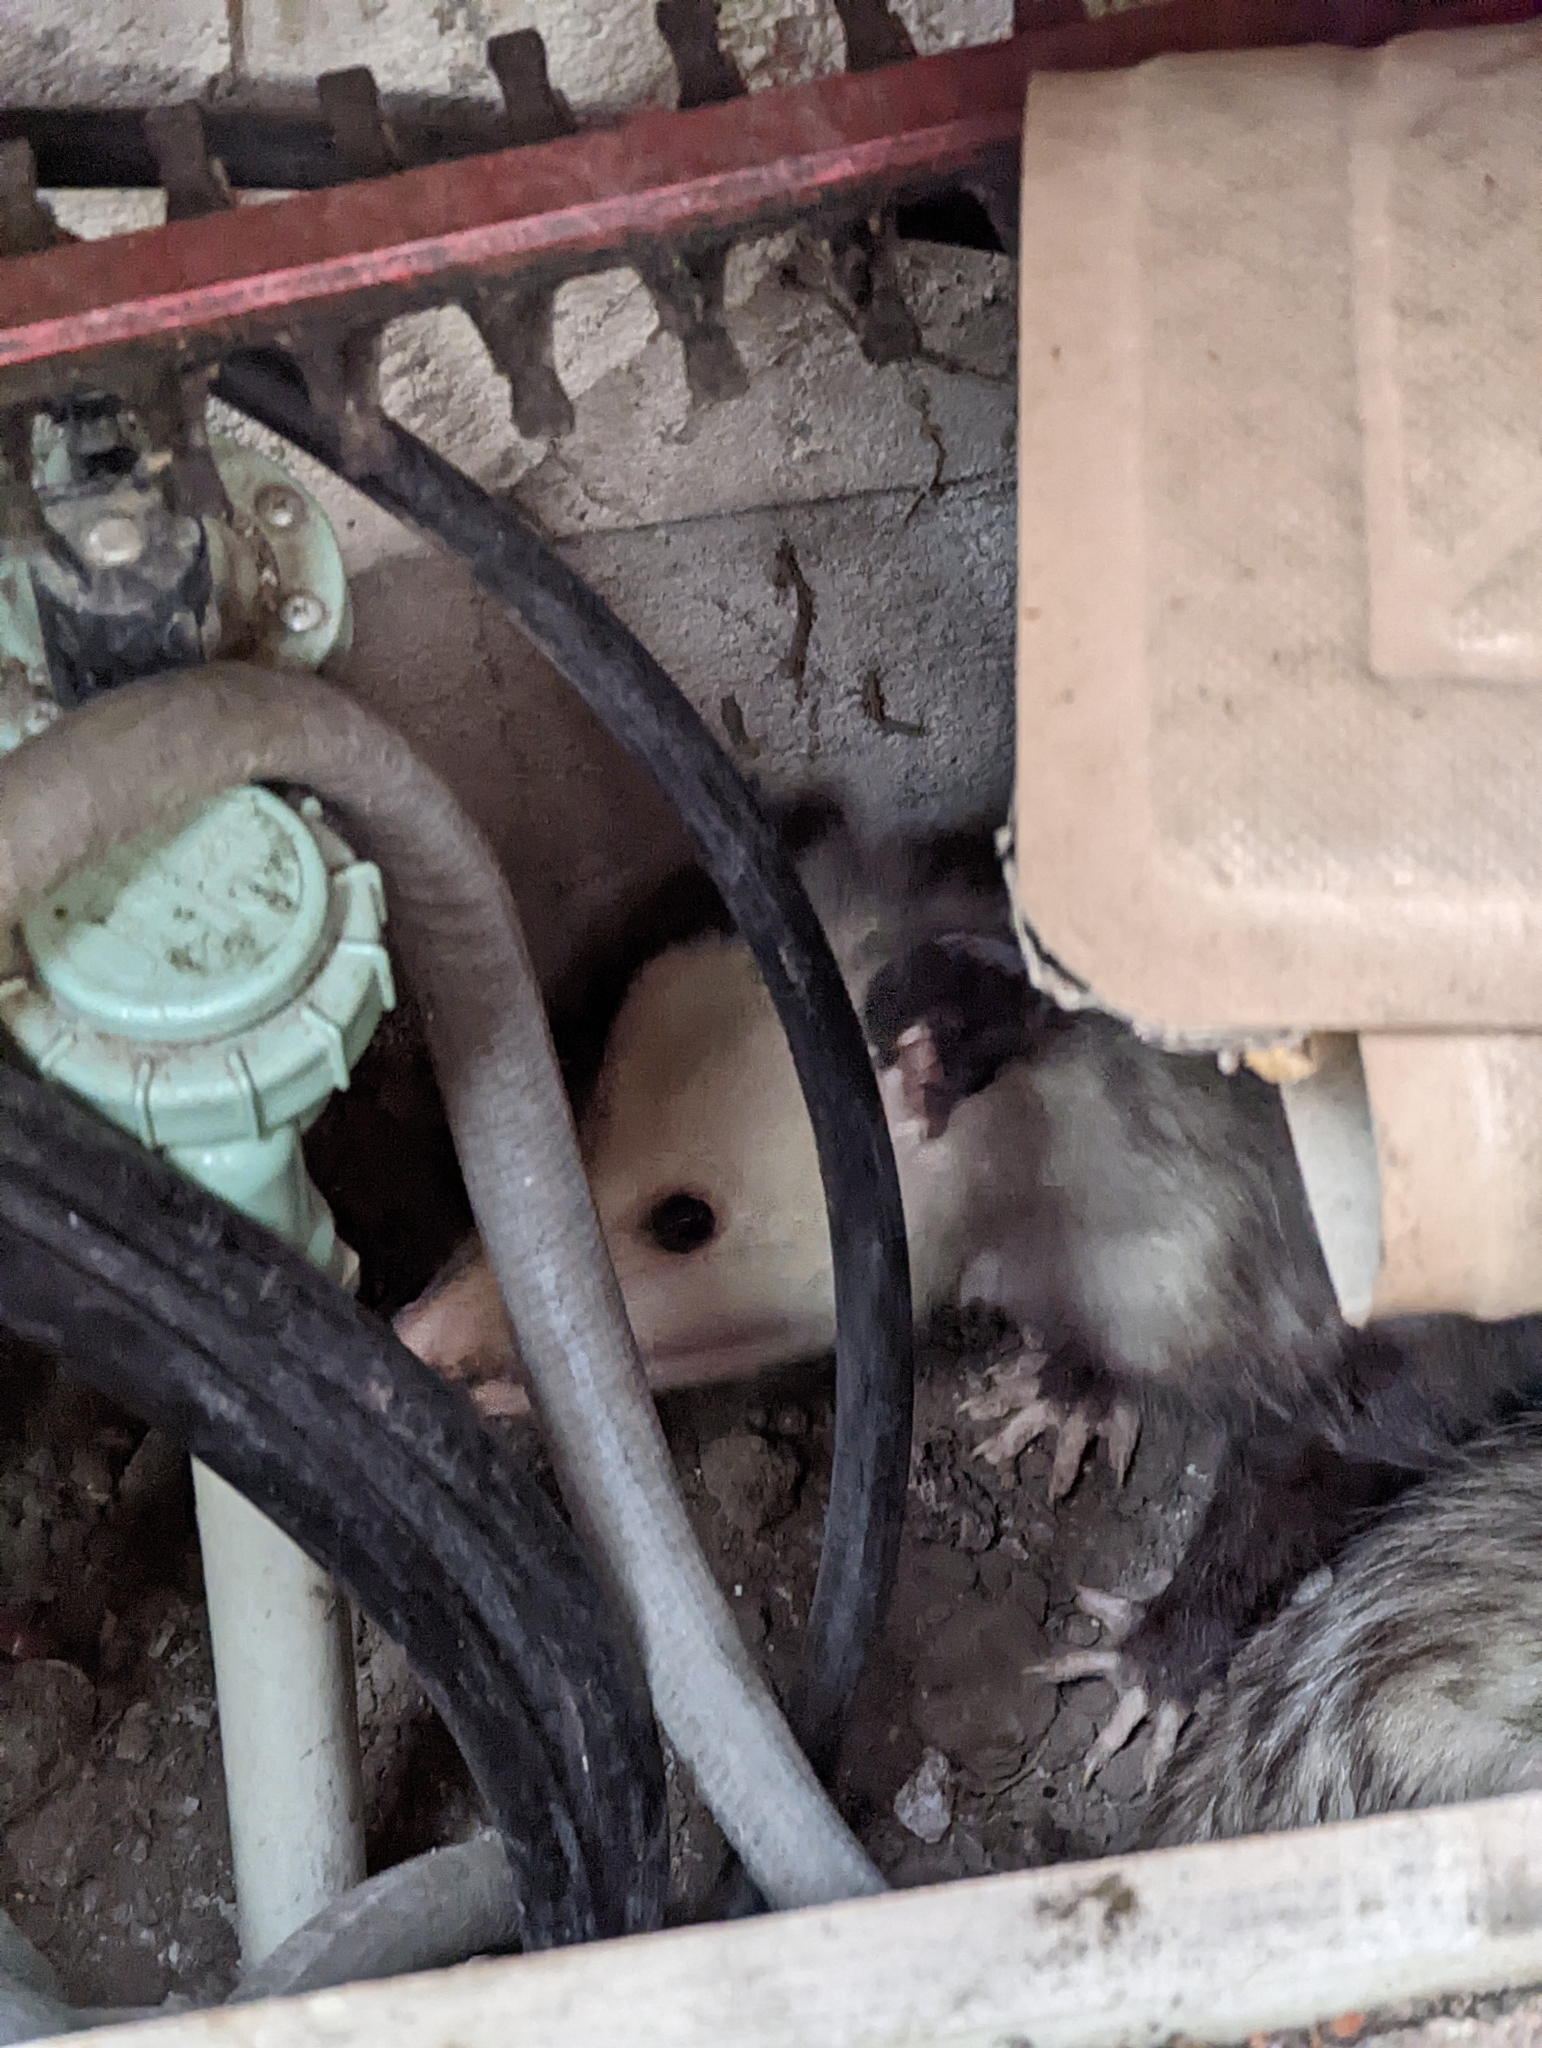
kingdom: Animalia
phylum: Chordata
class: Mammalia
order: Didelphimorphia
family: Didelphidae
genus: Didelphis
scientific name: Didelphis virginiana
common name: Virginia opossum
